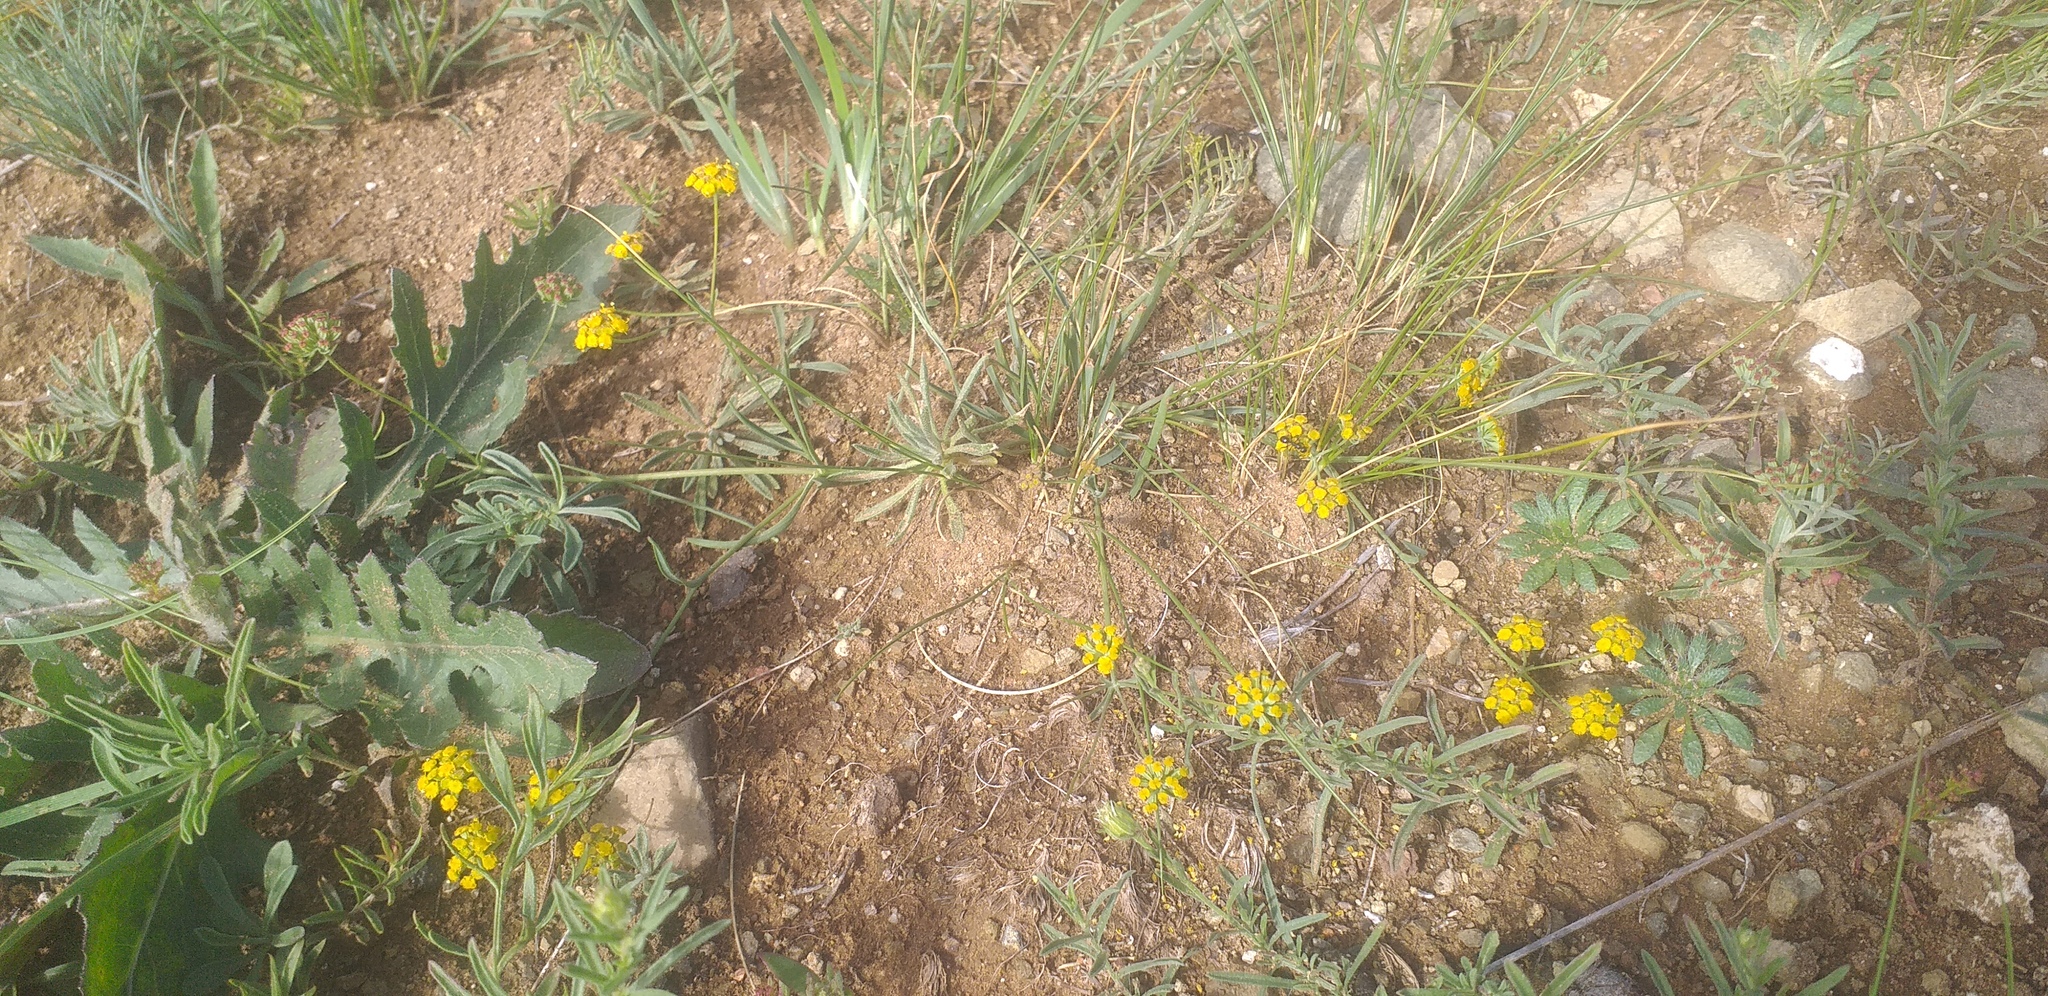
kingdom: Plantae
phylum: Tracheophyta
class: Magnoliopsida
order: Apiales
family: Apiaceae
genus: Bupleurum
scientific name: Bupleurum bicaule
